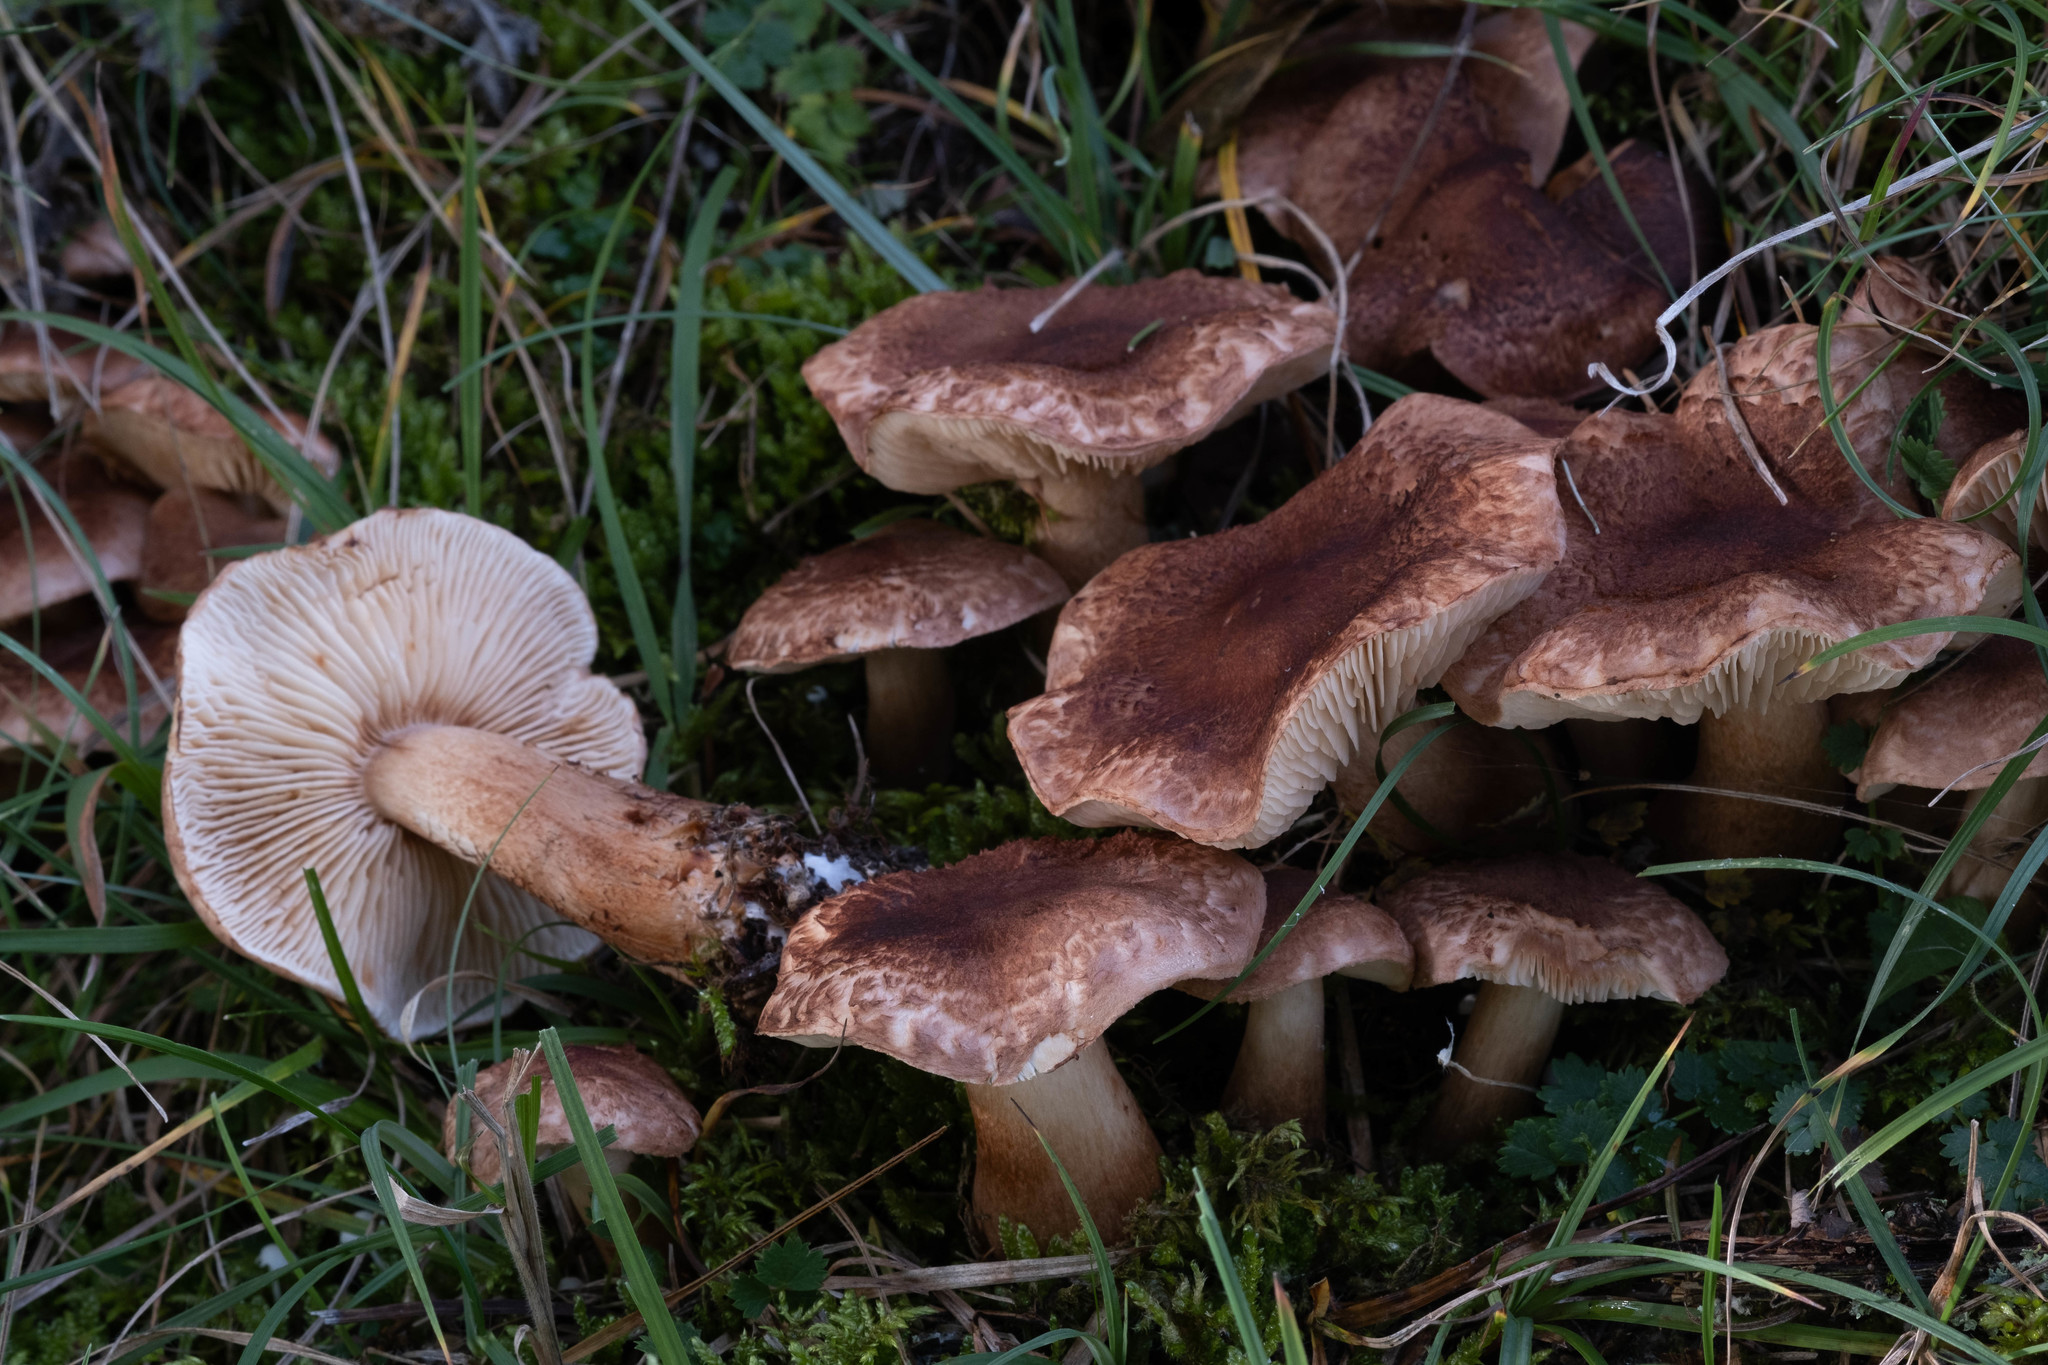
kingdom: Fungi
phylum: Basidiomycota
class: Agaricomycetes
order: Agaricales
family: Tricholomataceae
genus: Tricholoma
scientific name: Tricholoma vaccinum
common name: Scaly knight
